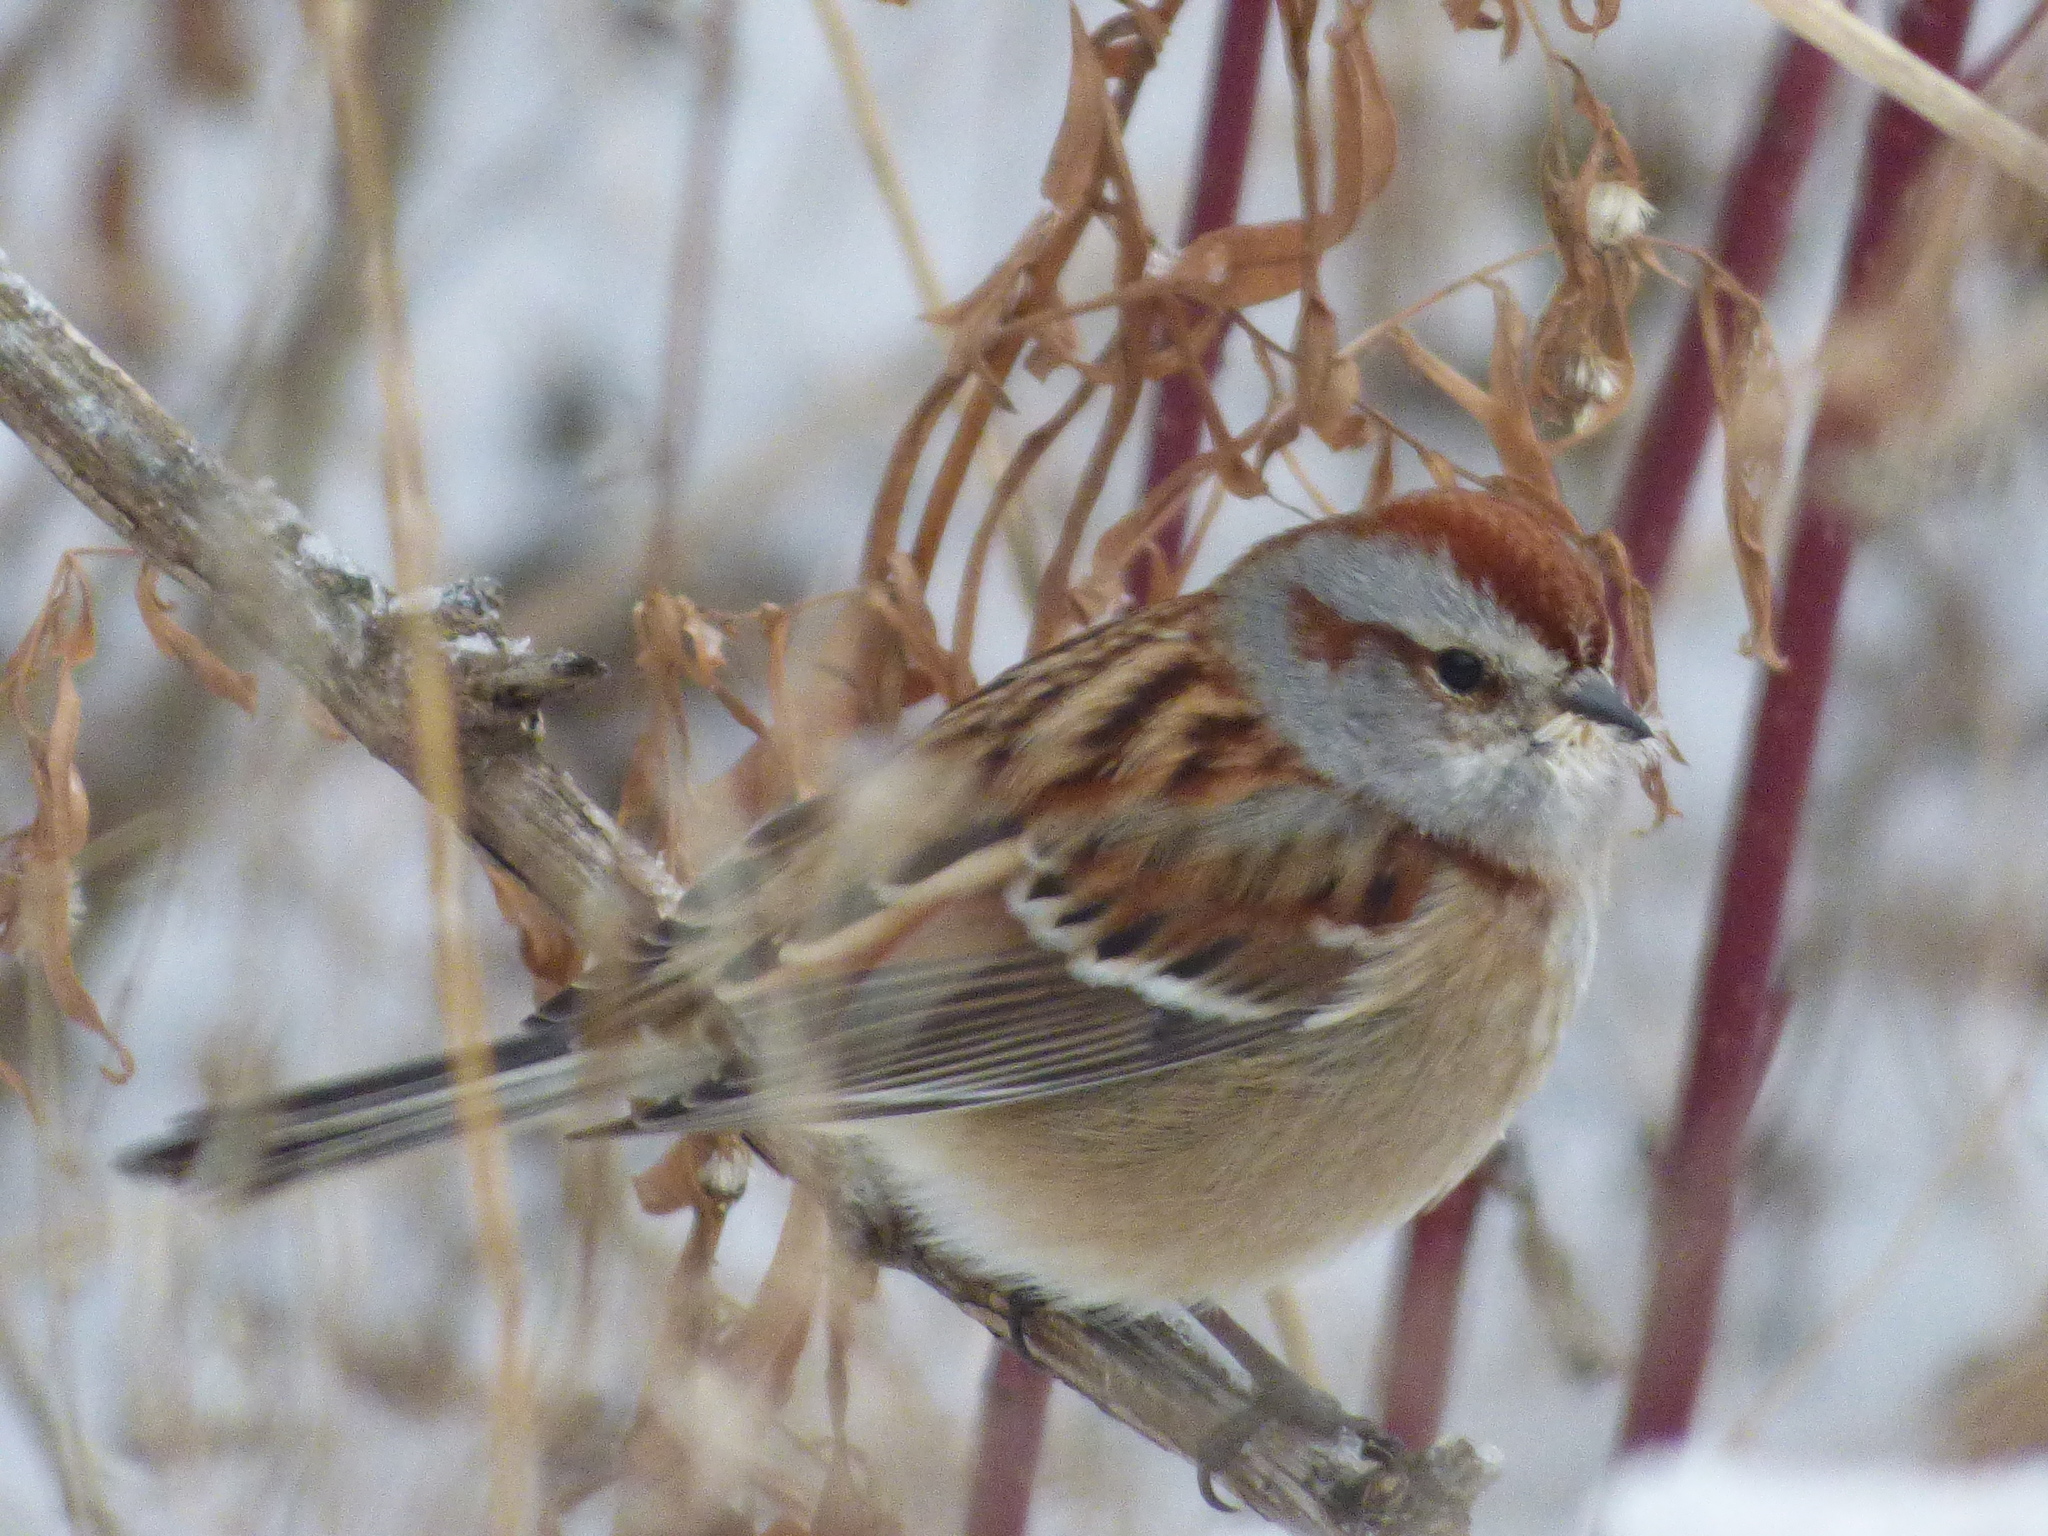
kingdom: Animalia
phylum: Chordata
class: Aves
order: Passeriformes
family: Passerellidae
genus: Spizelloides
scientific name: Spizelloides arborea
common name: American tree sparrow
